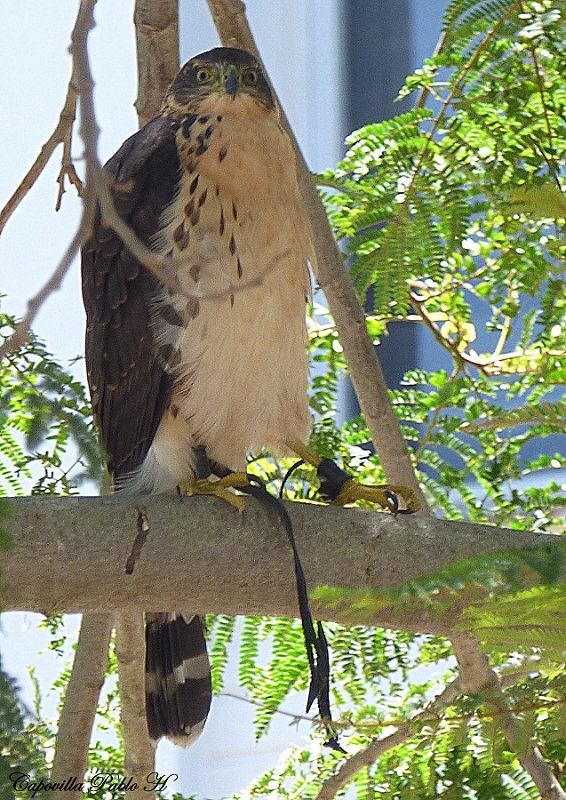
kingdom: Animalia
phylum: Chordata
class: Aves
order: Accipitriformes
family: Accipitridae
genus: Accipiter
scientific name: Accipiter bicolor
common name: Bicolored hawk
